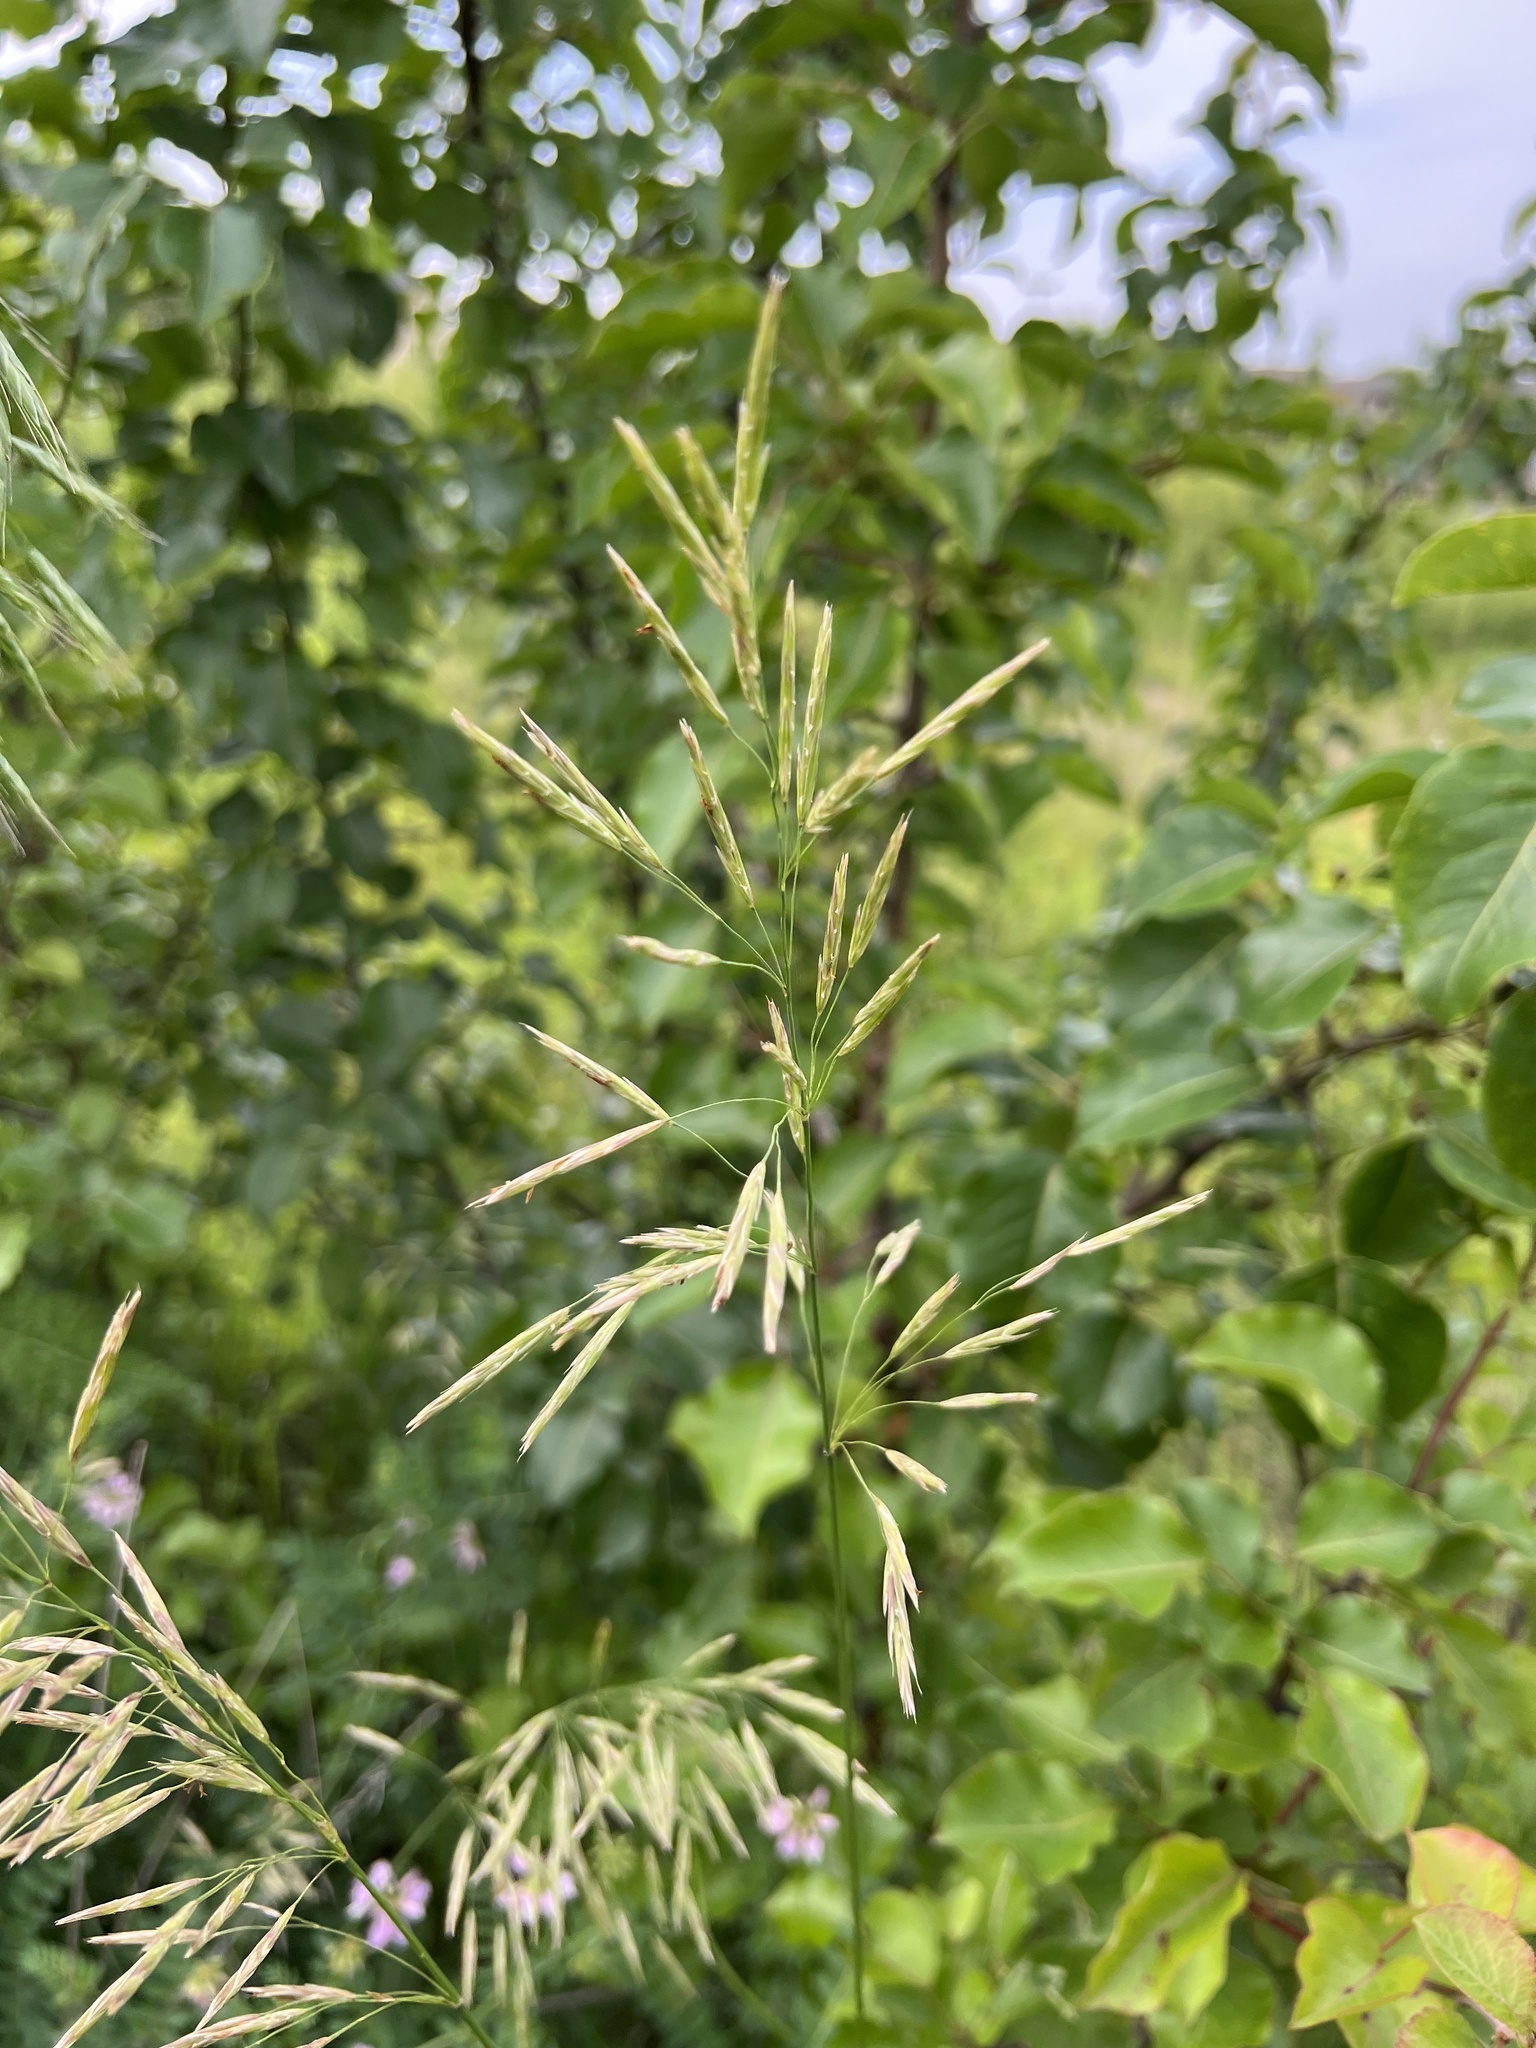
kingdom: Plantae
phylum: Tracheophyta
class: Liliopsida
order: Poales
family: Poaceae
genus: Bromus
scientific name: Bromus inermis
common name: Smooth brome
